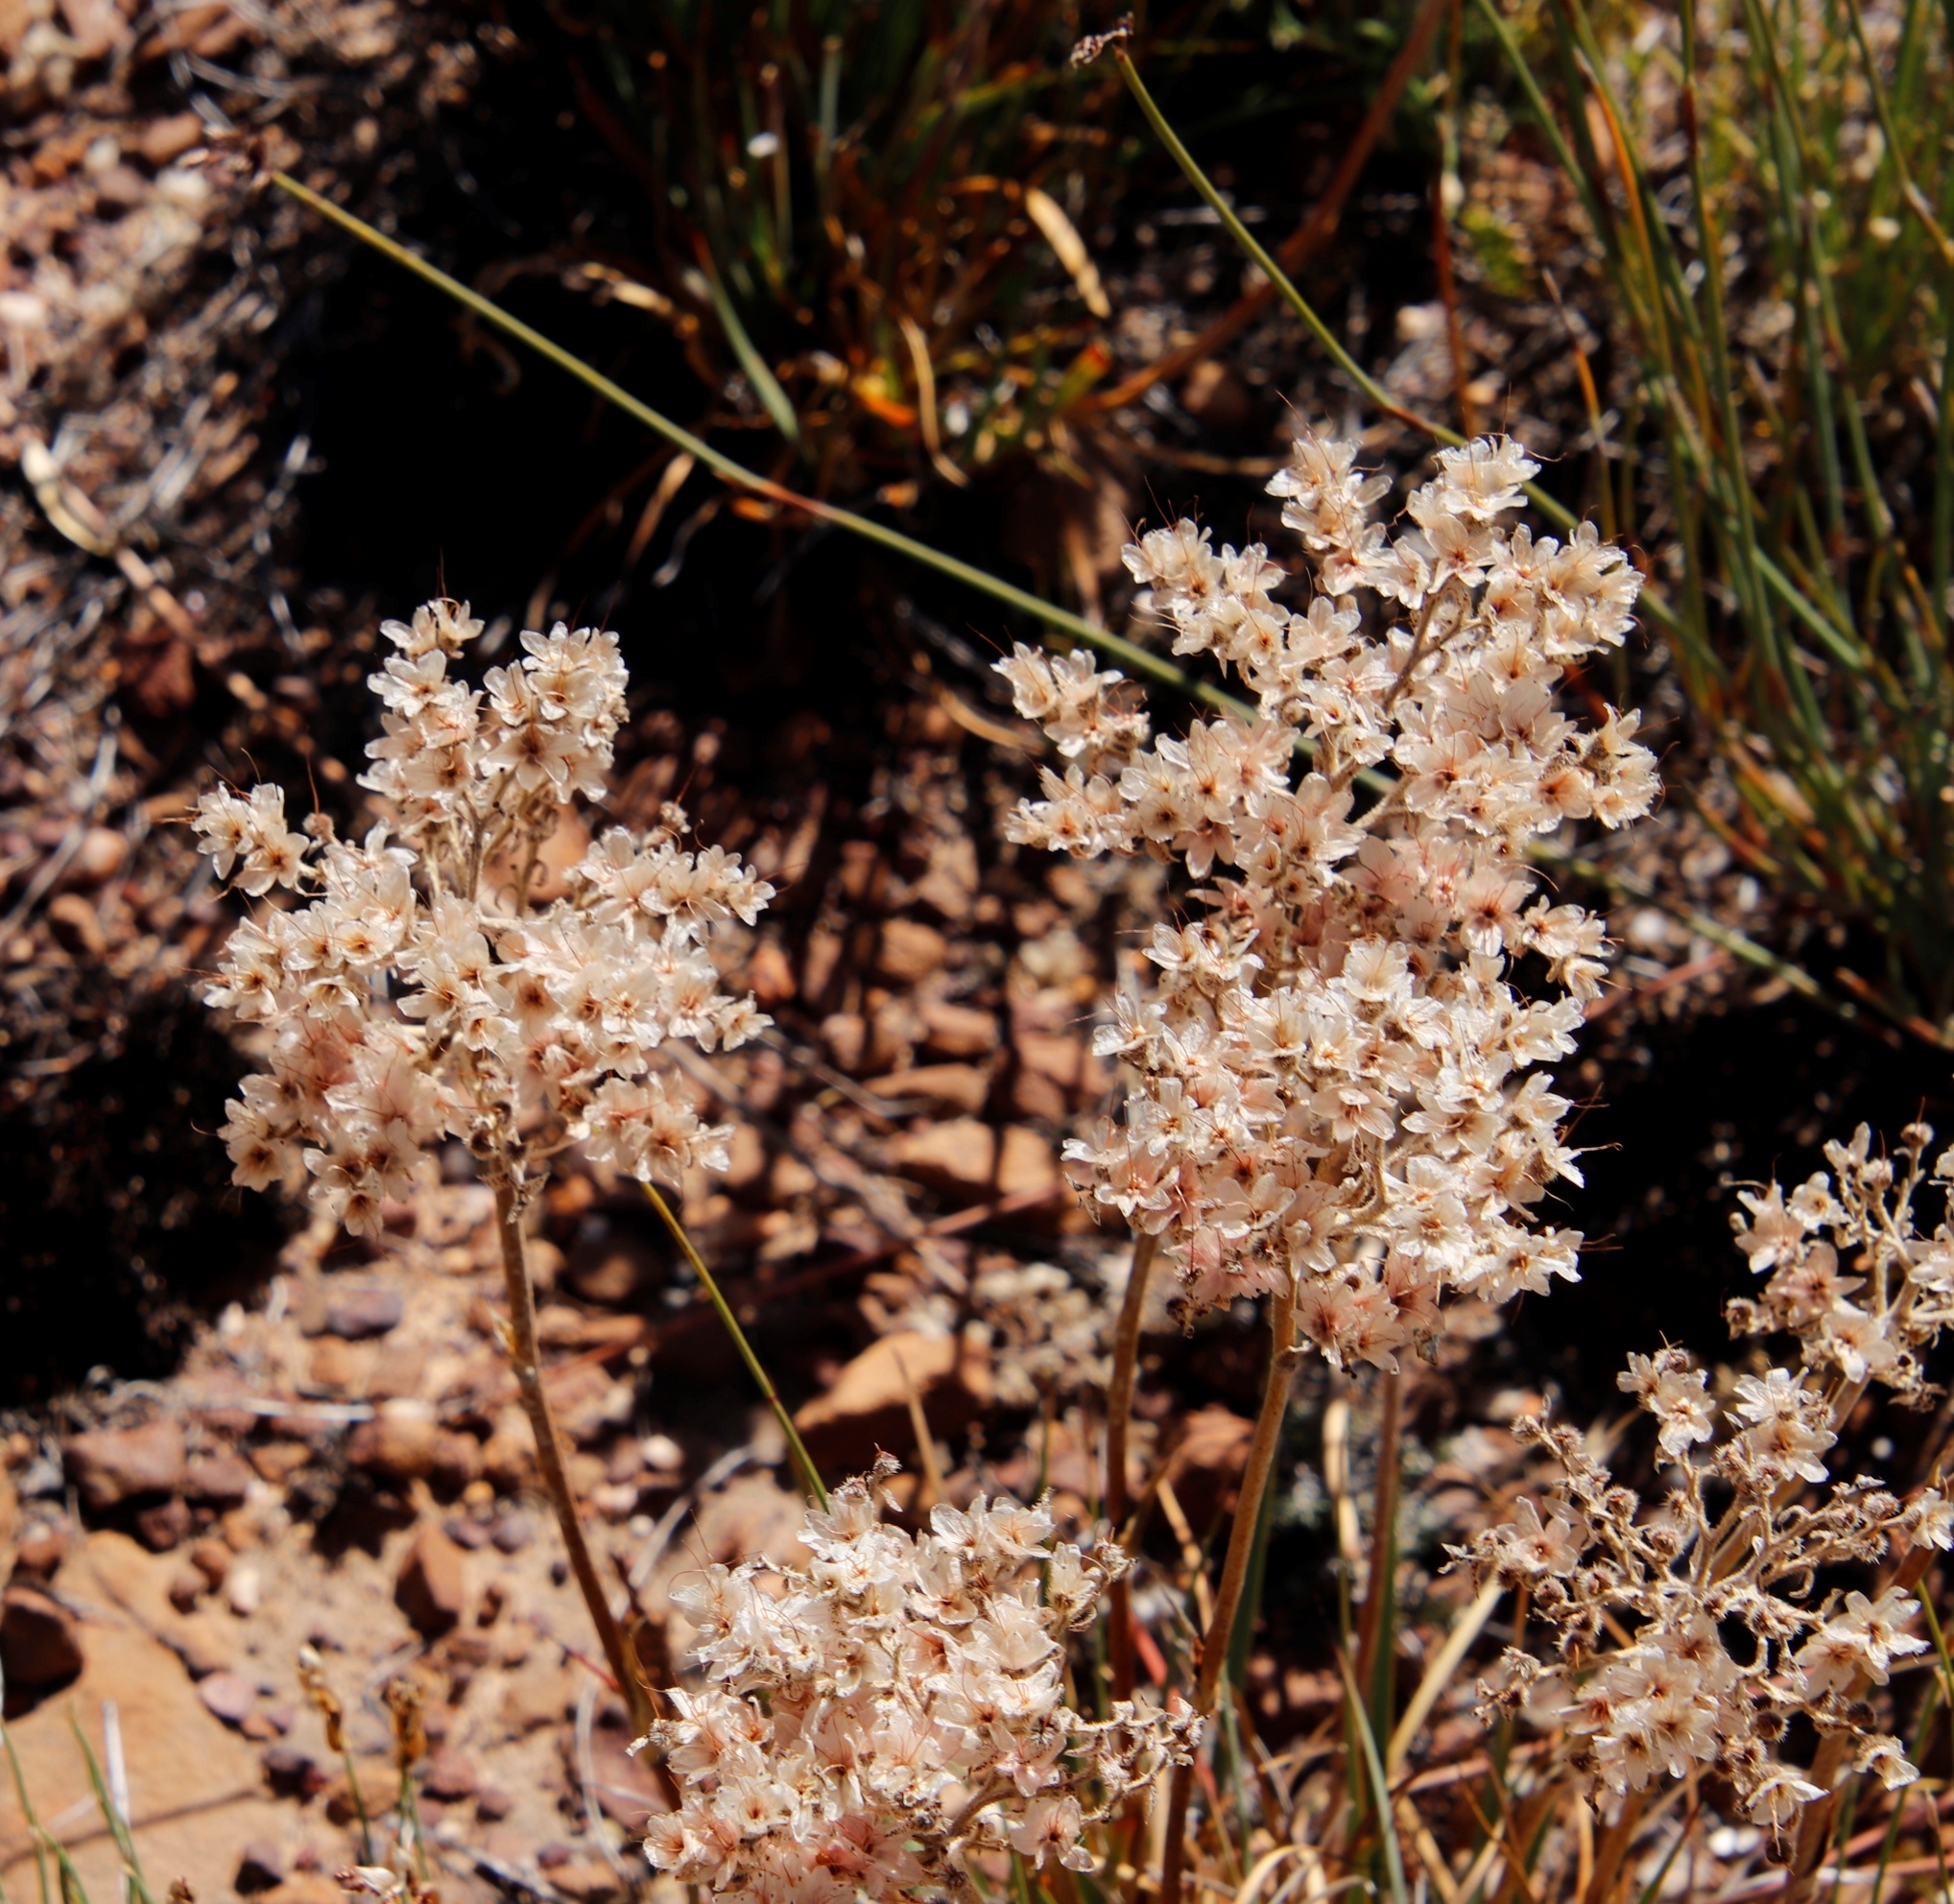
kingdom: Plantae
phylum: Tracheophyta
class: Liliopsida
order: Commelinales
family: Haemodoraceae
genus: Dilatris
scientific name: Dilatris ixioides
